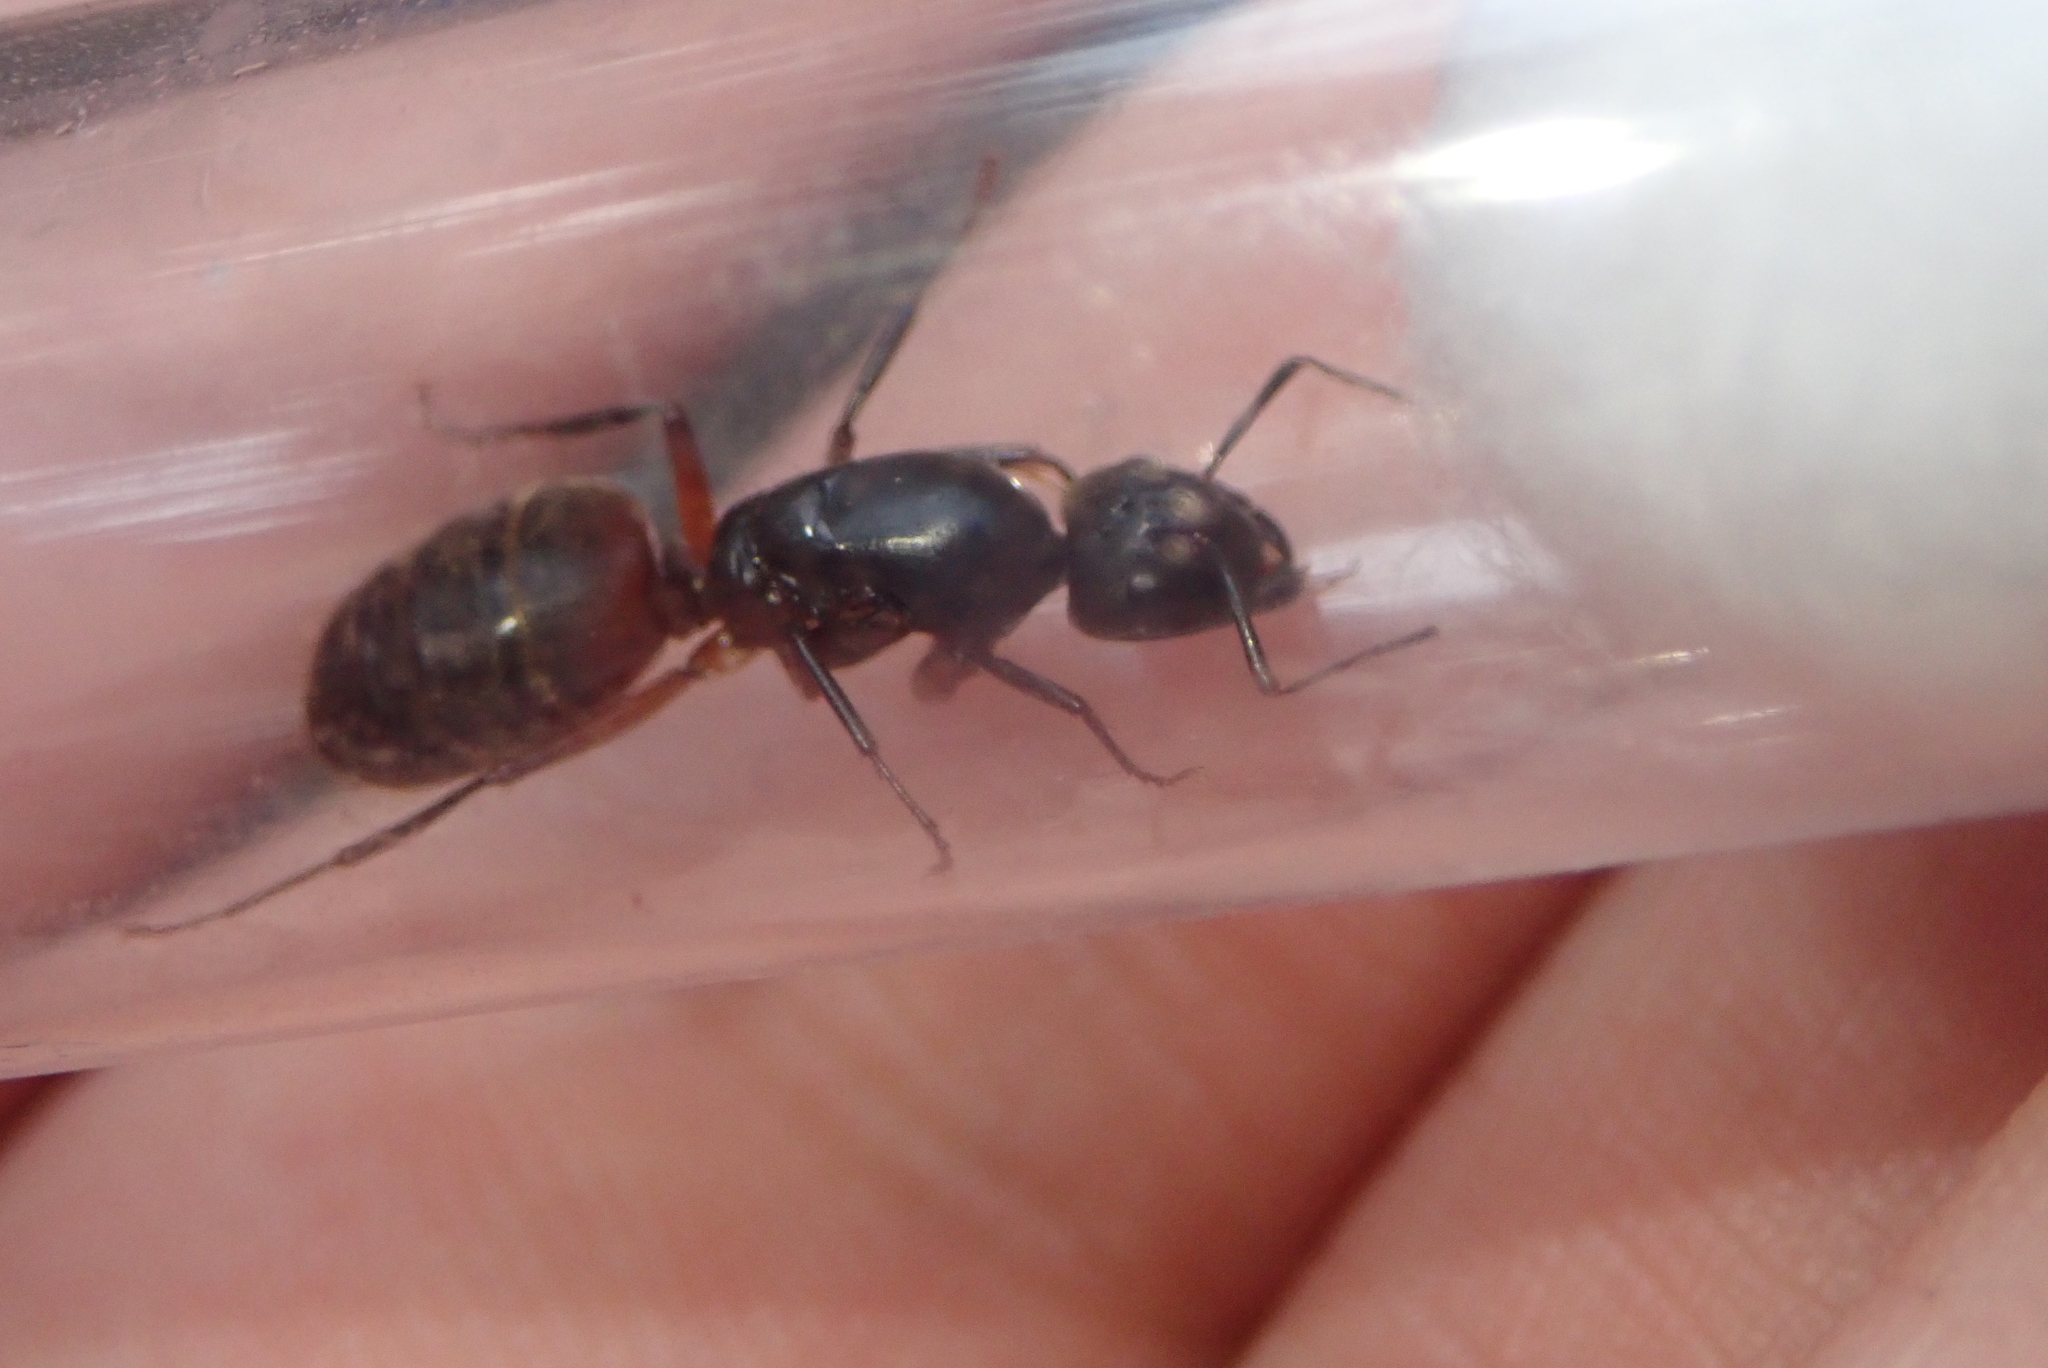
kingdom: Animalia
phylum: Arthropoda
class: Insecta
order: Hymenoptera
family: Formicidae
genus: Camponotus
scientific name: Camponotus chromaiodes
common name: Red carpenter ant
